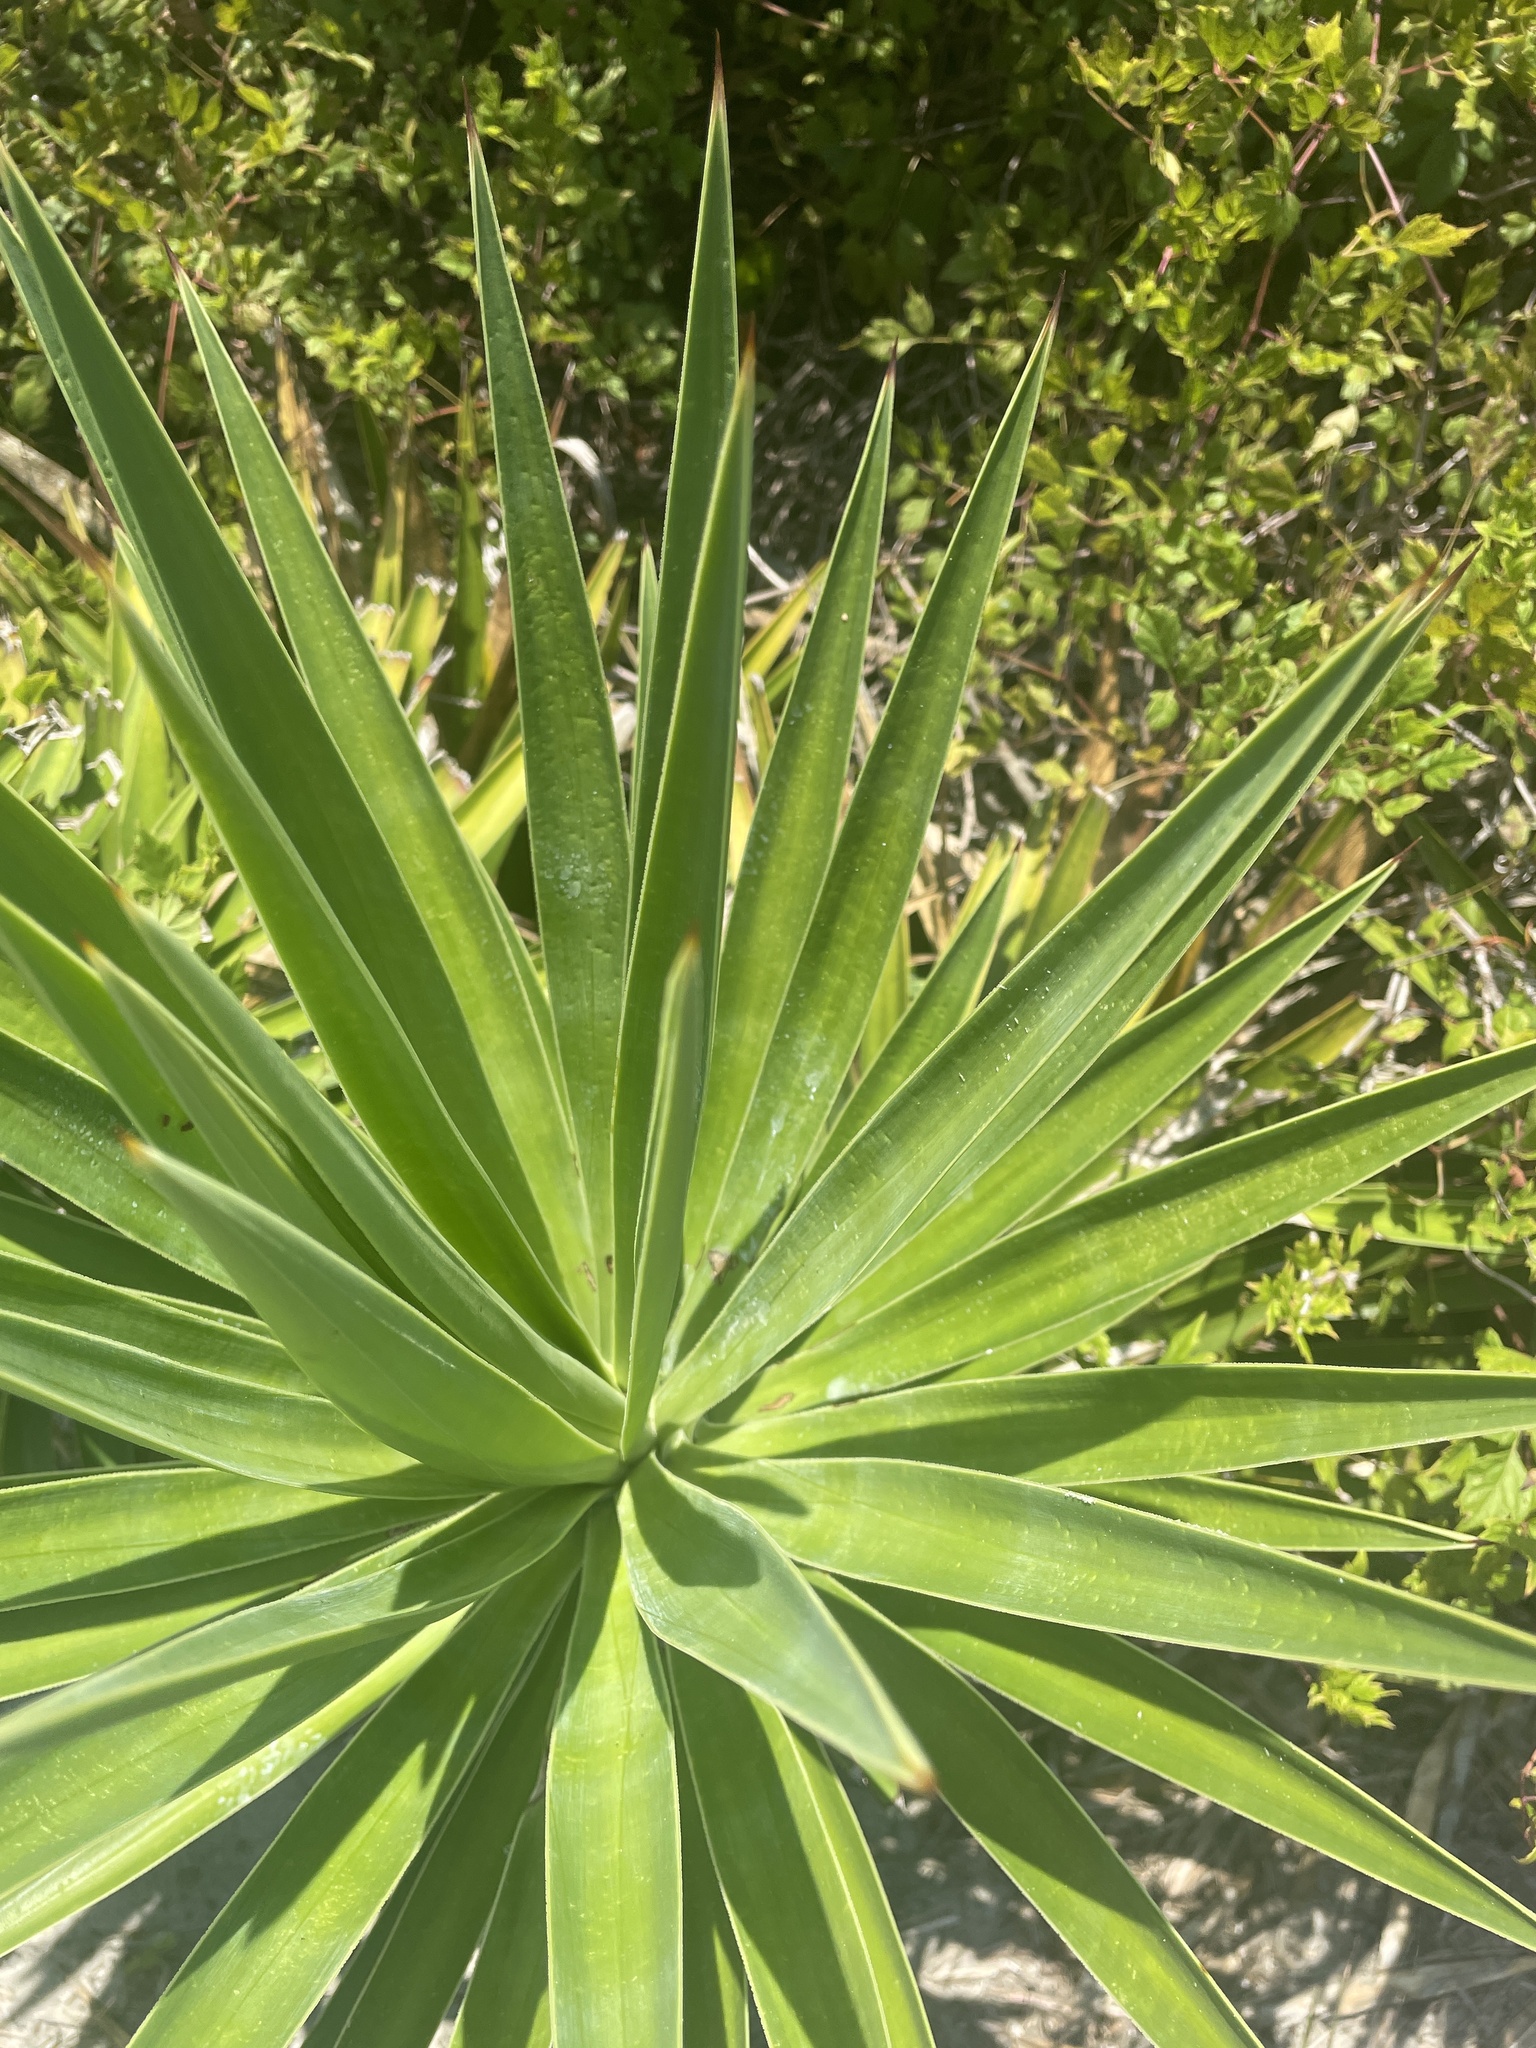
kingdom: Plantae
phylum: Tracheophyta
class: Liliopsida
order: Asparagales
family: Asparagaceae
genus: Yucca
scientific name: Yucca aloifolia
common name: Aloe yucca
